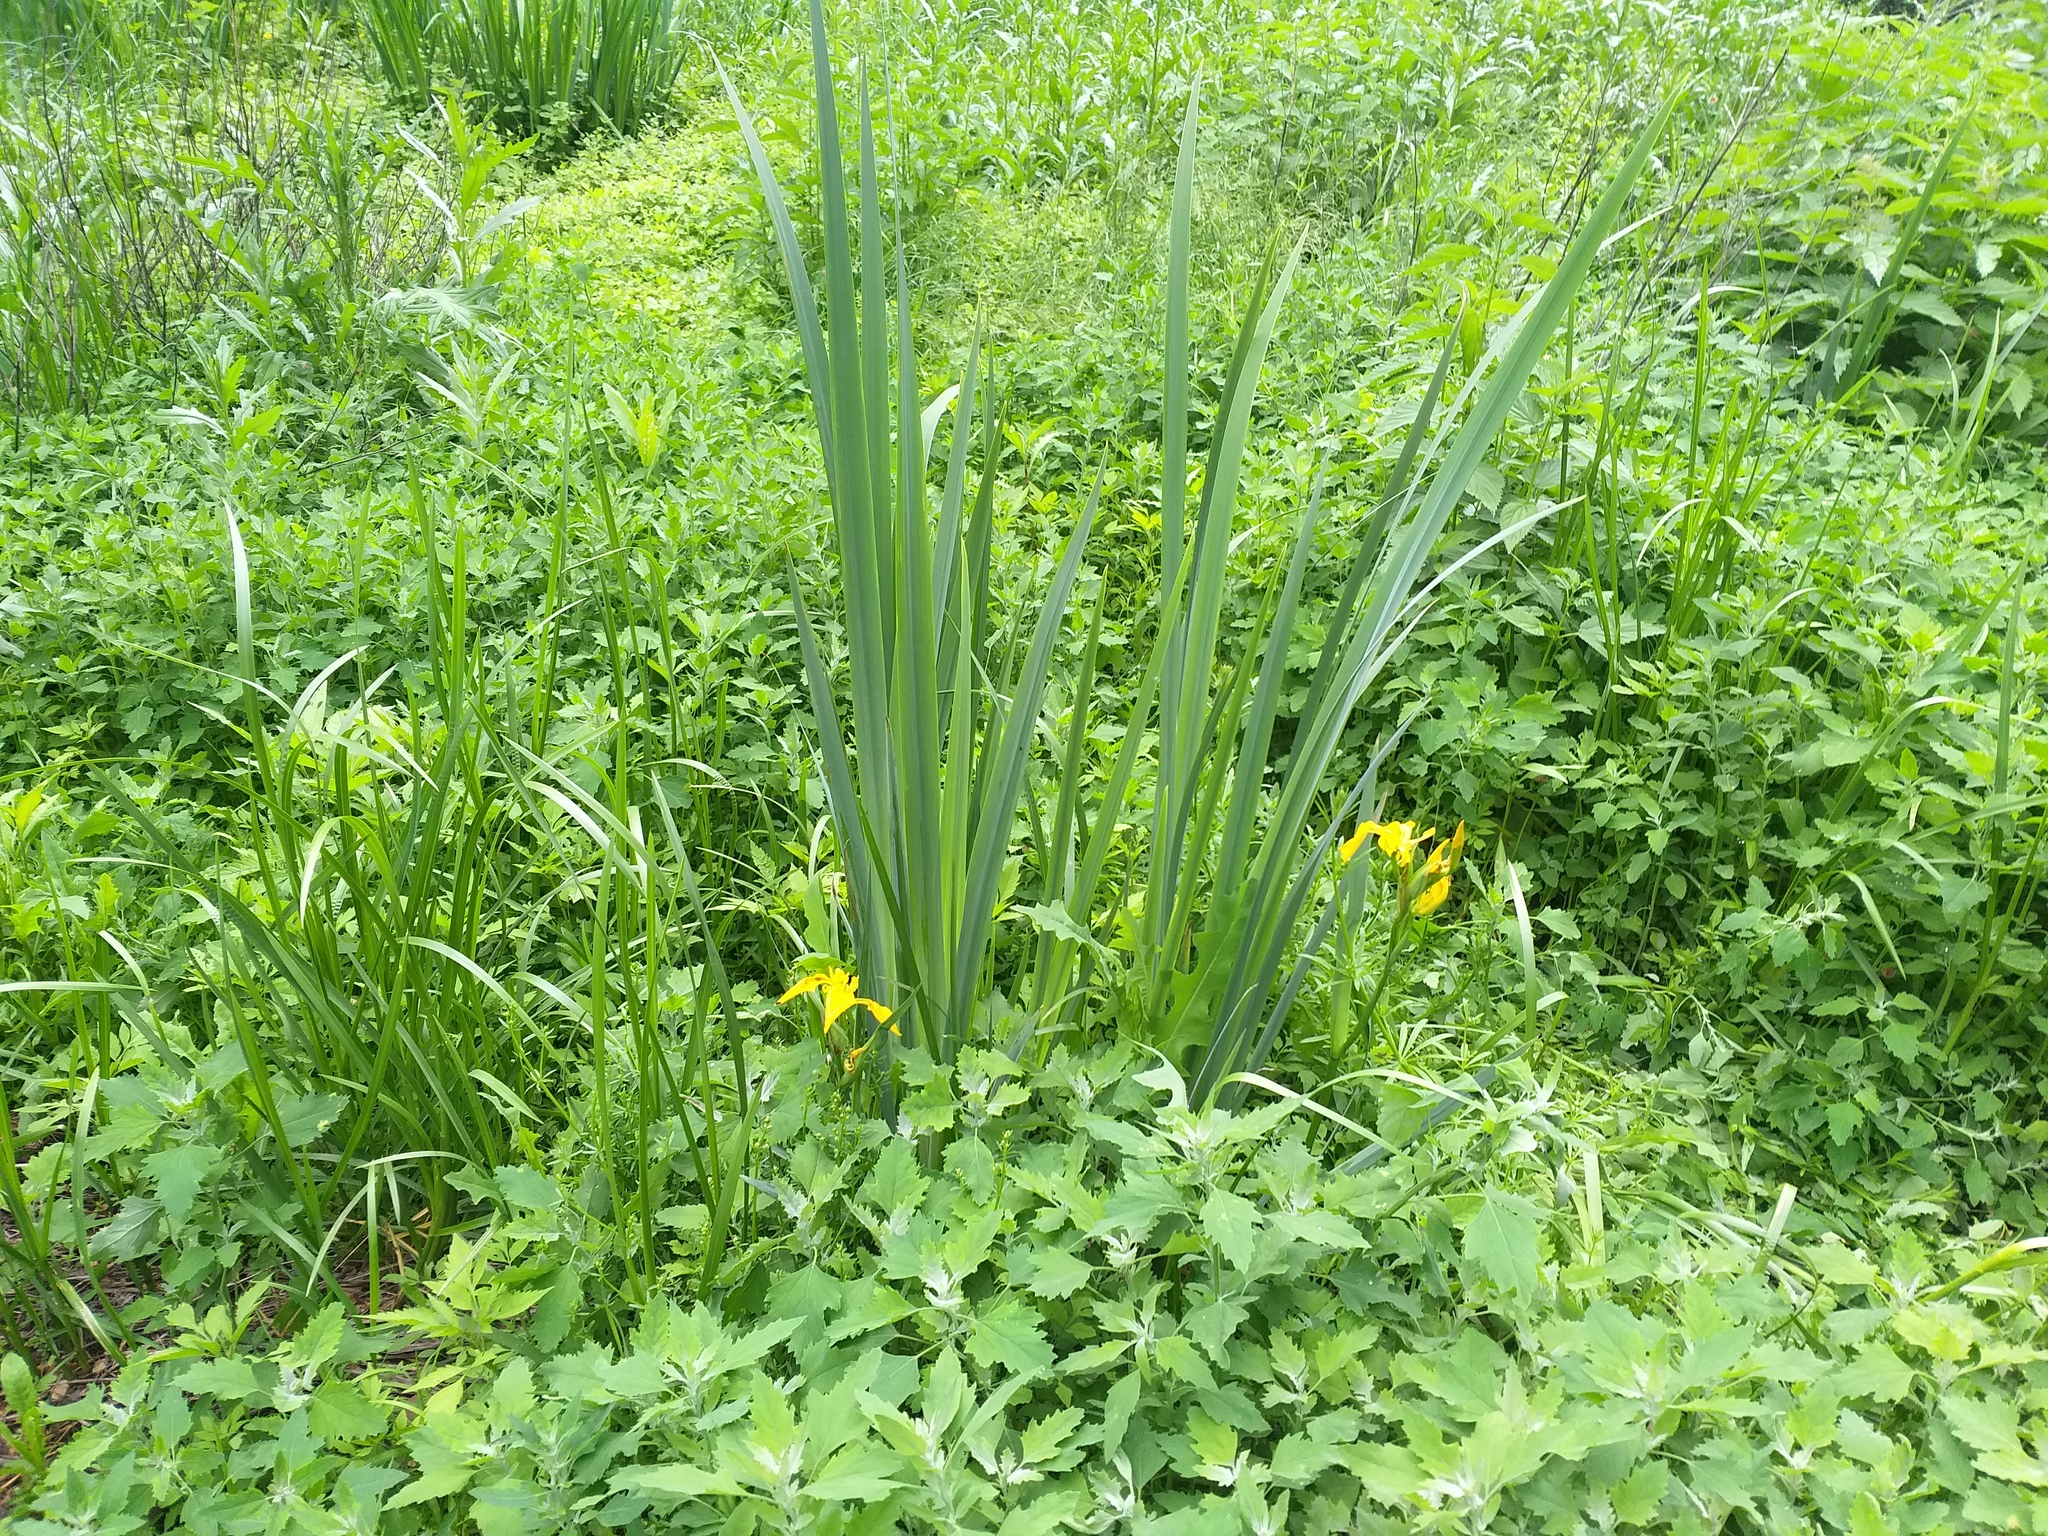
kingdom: Plantae
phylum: Tracheophyta
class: Liliopsida
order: Asparagales
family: Iridaceae
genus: Iris
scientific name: Iris pseudacorus
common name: Yellow flag
